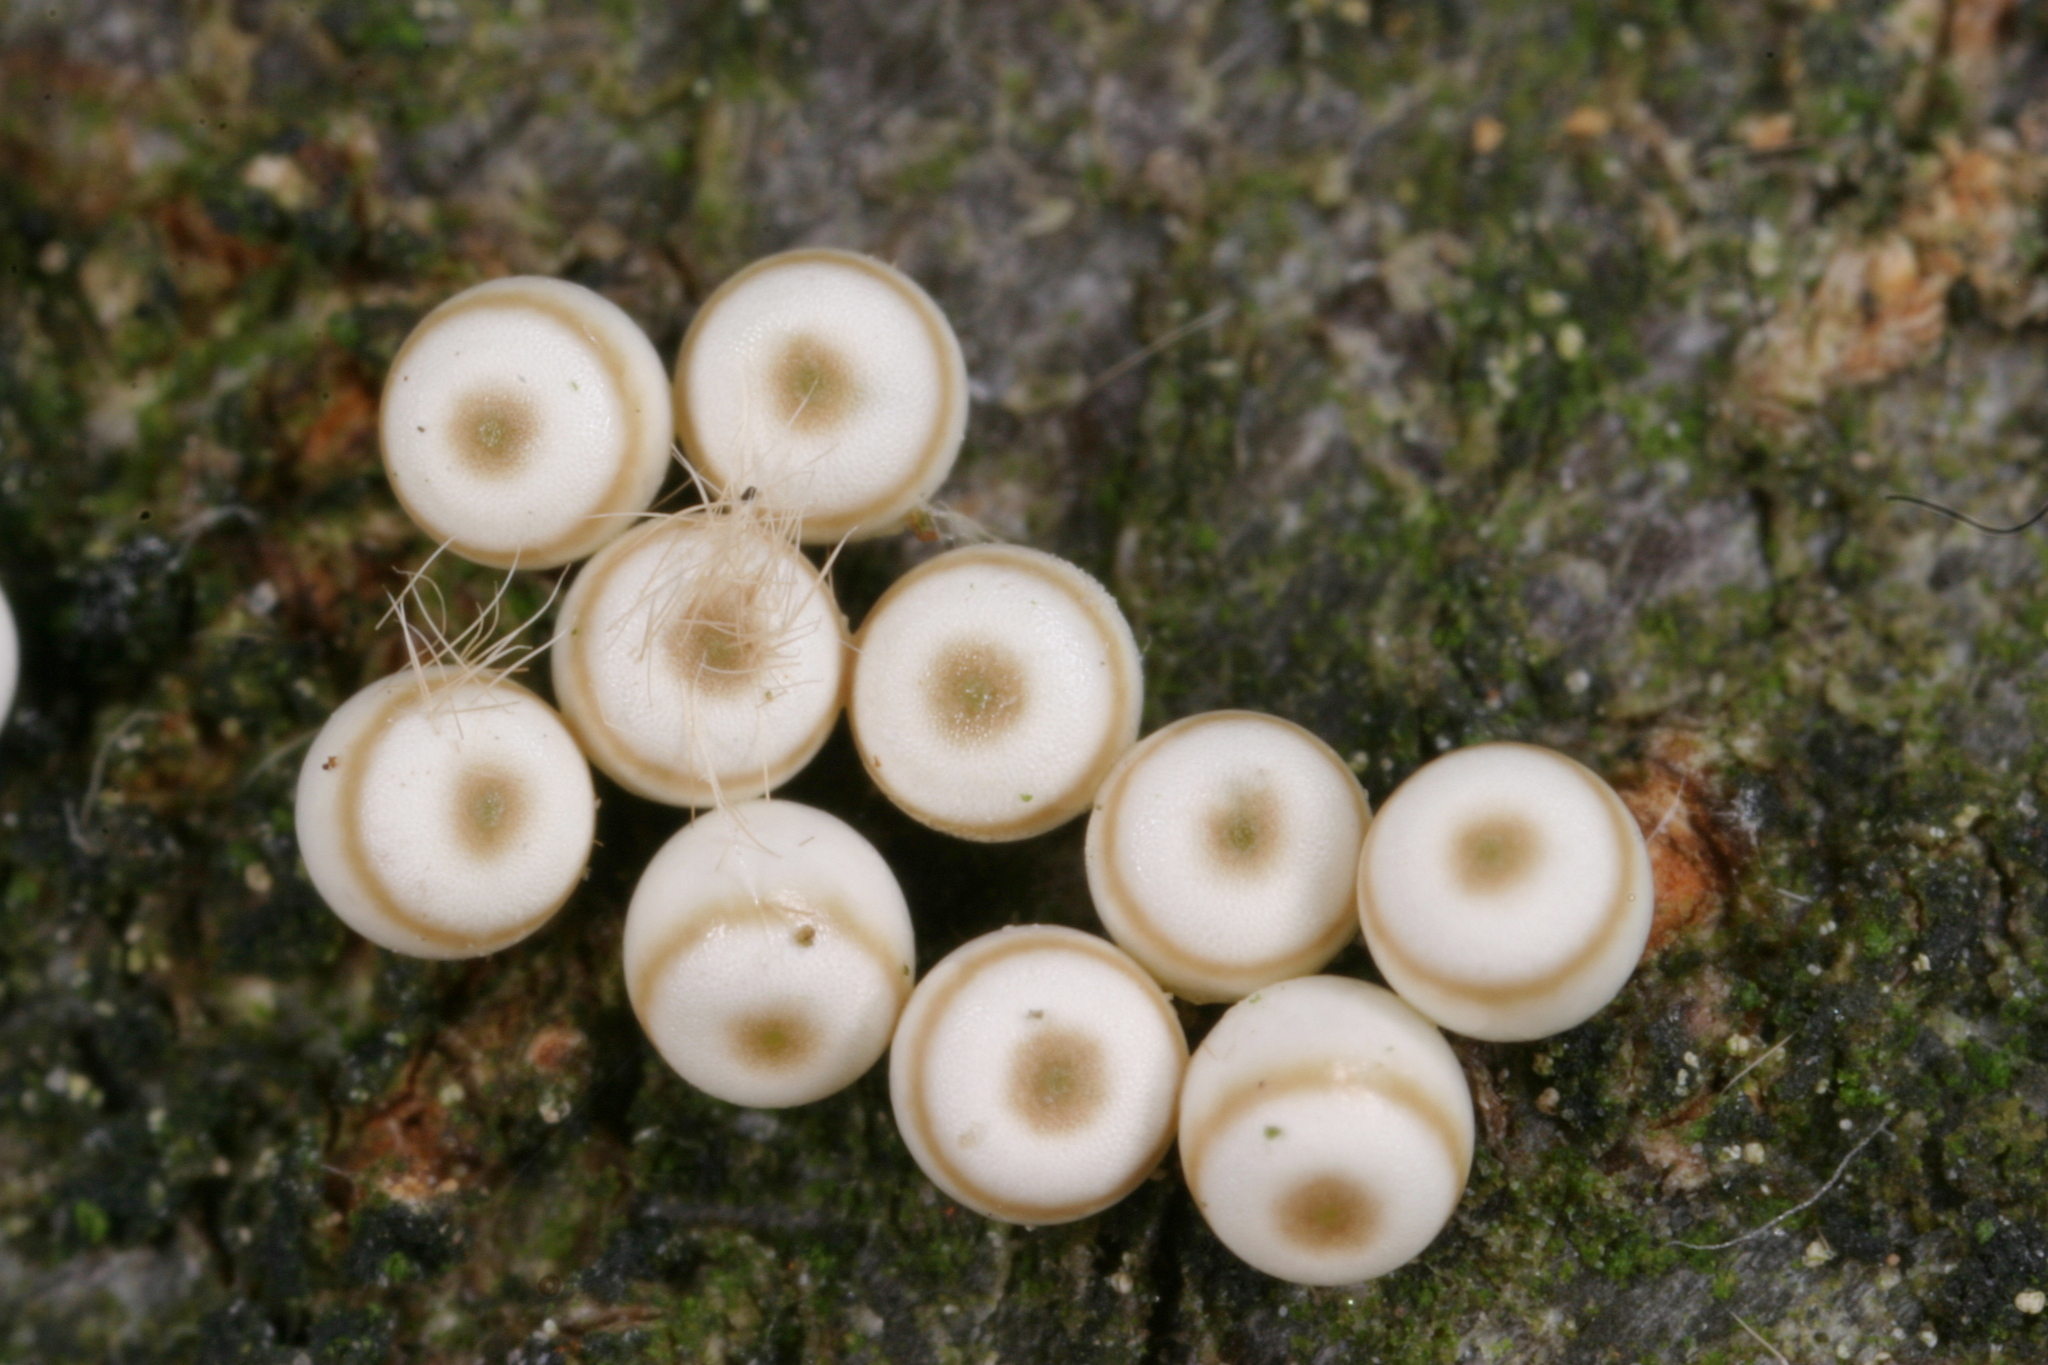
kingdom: Animalia
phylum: Arthropoda
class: Insecta
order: Lepidoptera
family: Erebidae
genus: Orgyia
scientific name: Orgyia antiqua
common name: Vapourer
